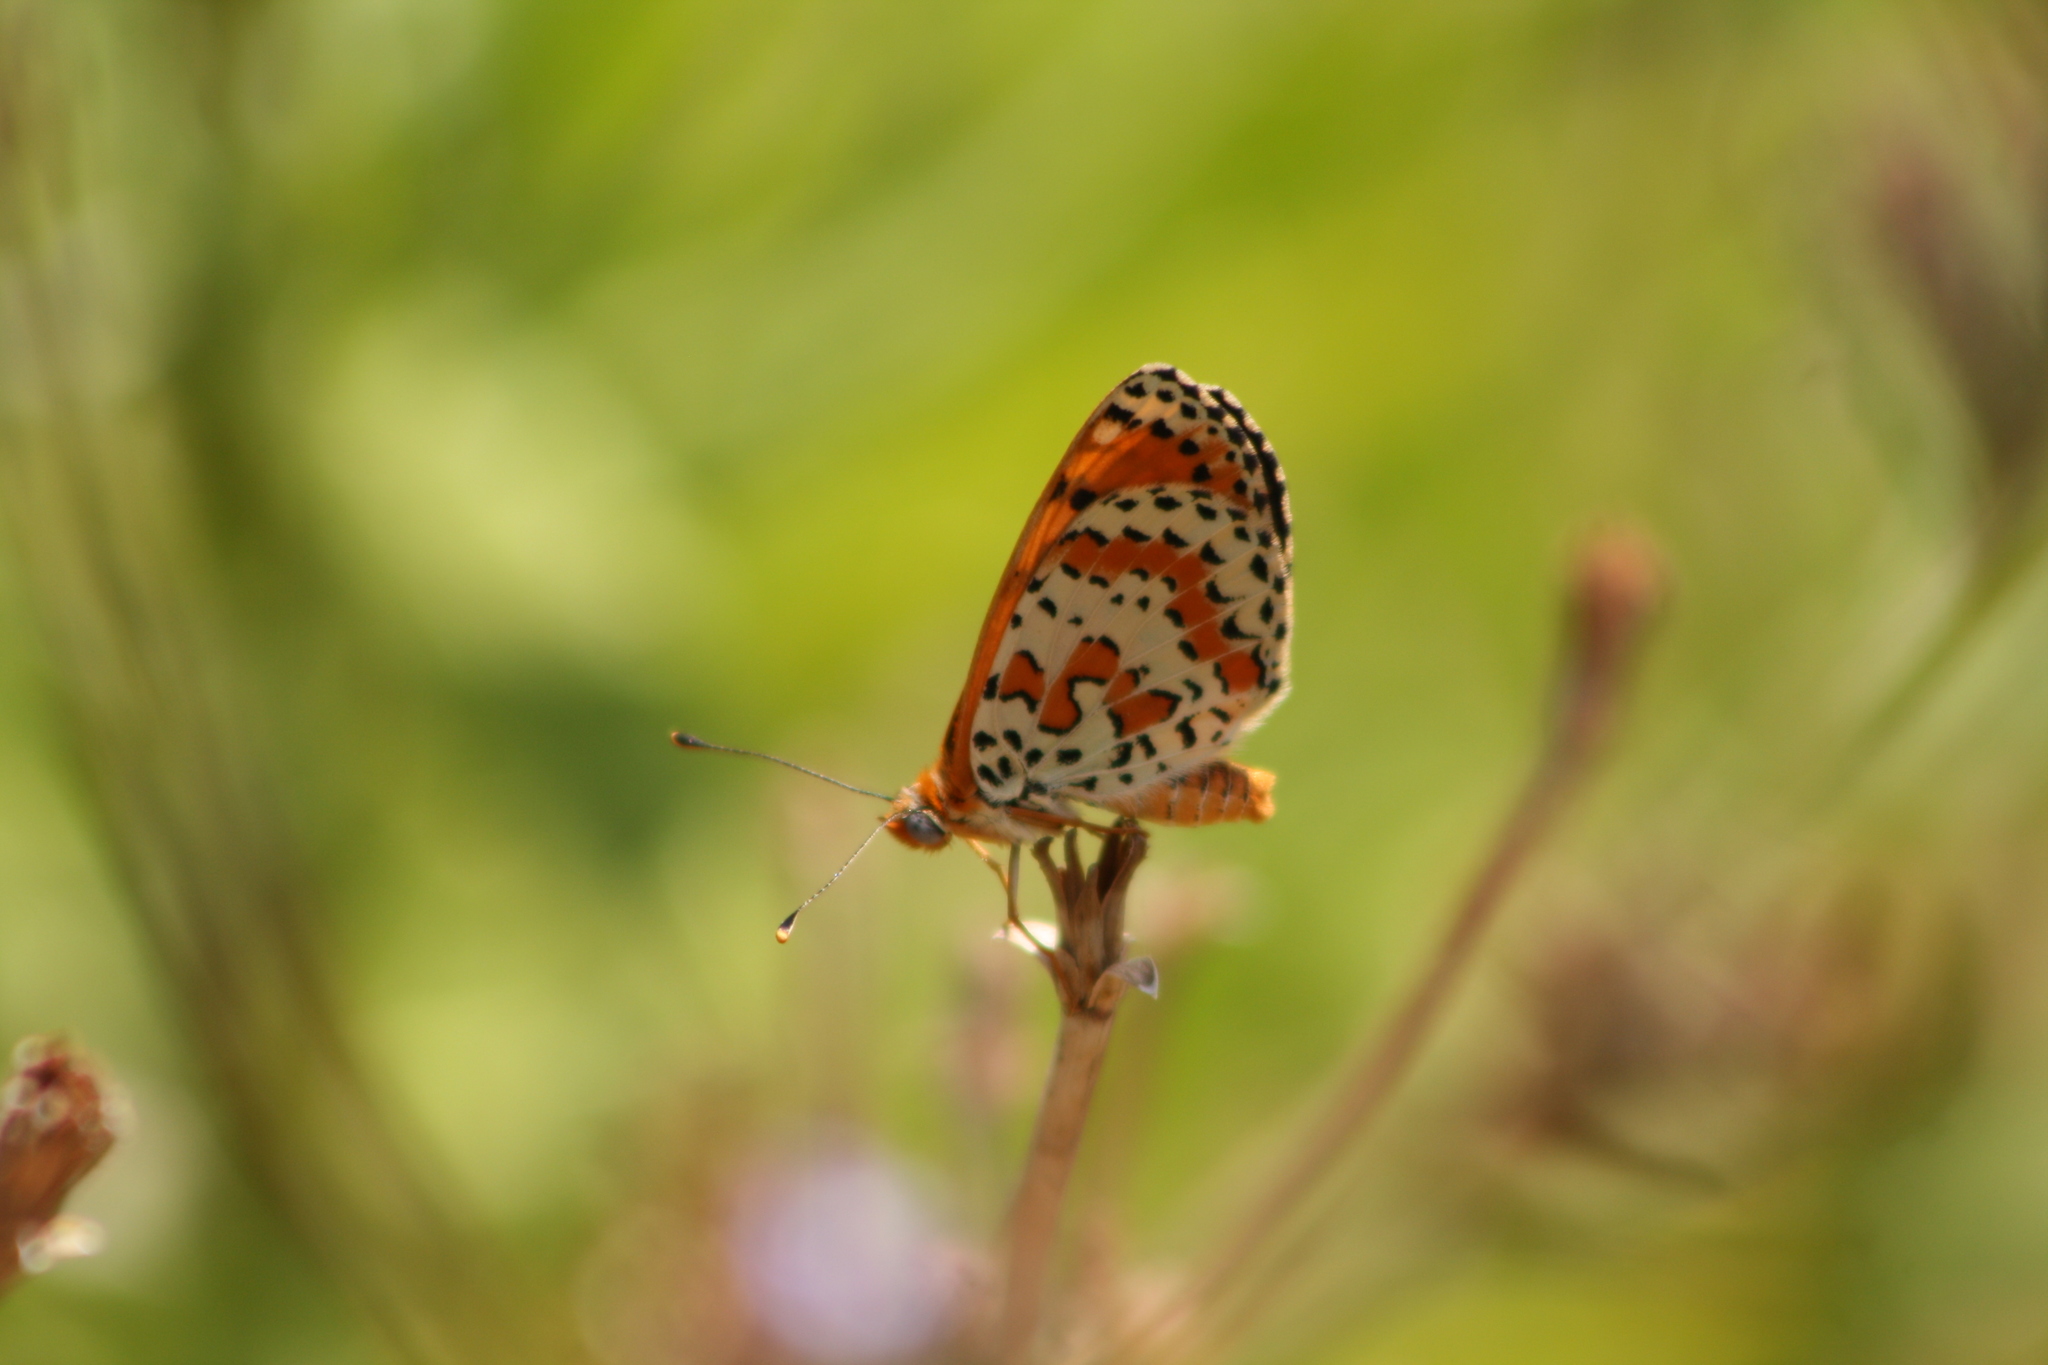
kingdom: Animalia
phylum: Arthropoda
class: Insecta
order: Lepidoptera
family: Nymphalidae
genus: Melitaea
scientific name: Melitaea didyma
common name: Spotted fritillary
